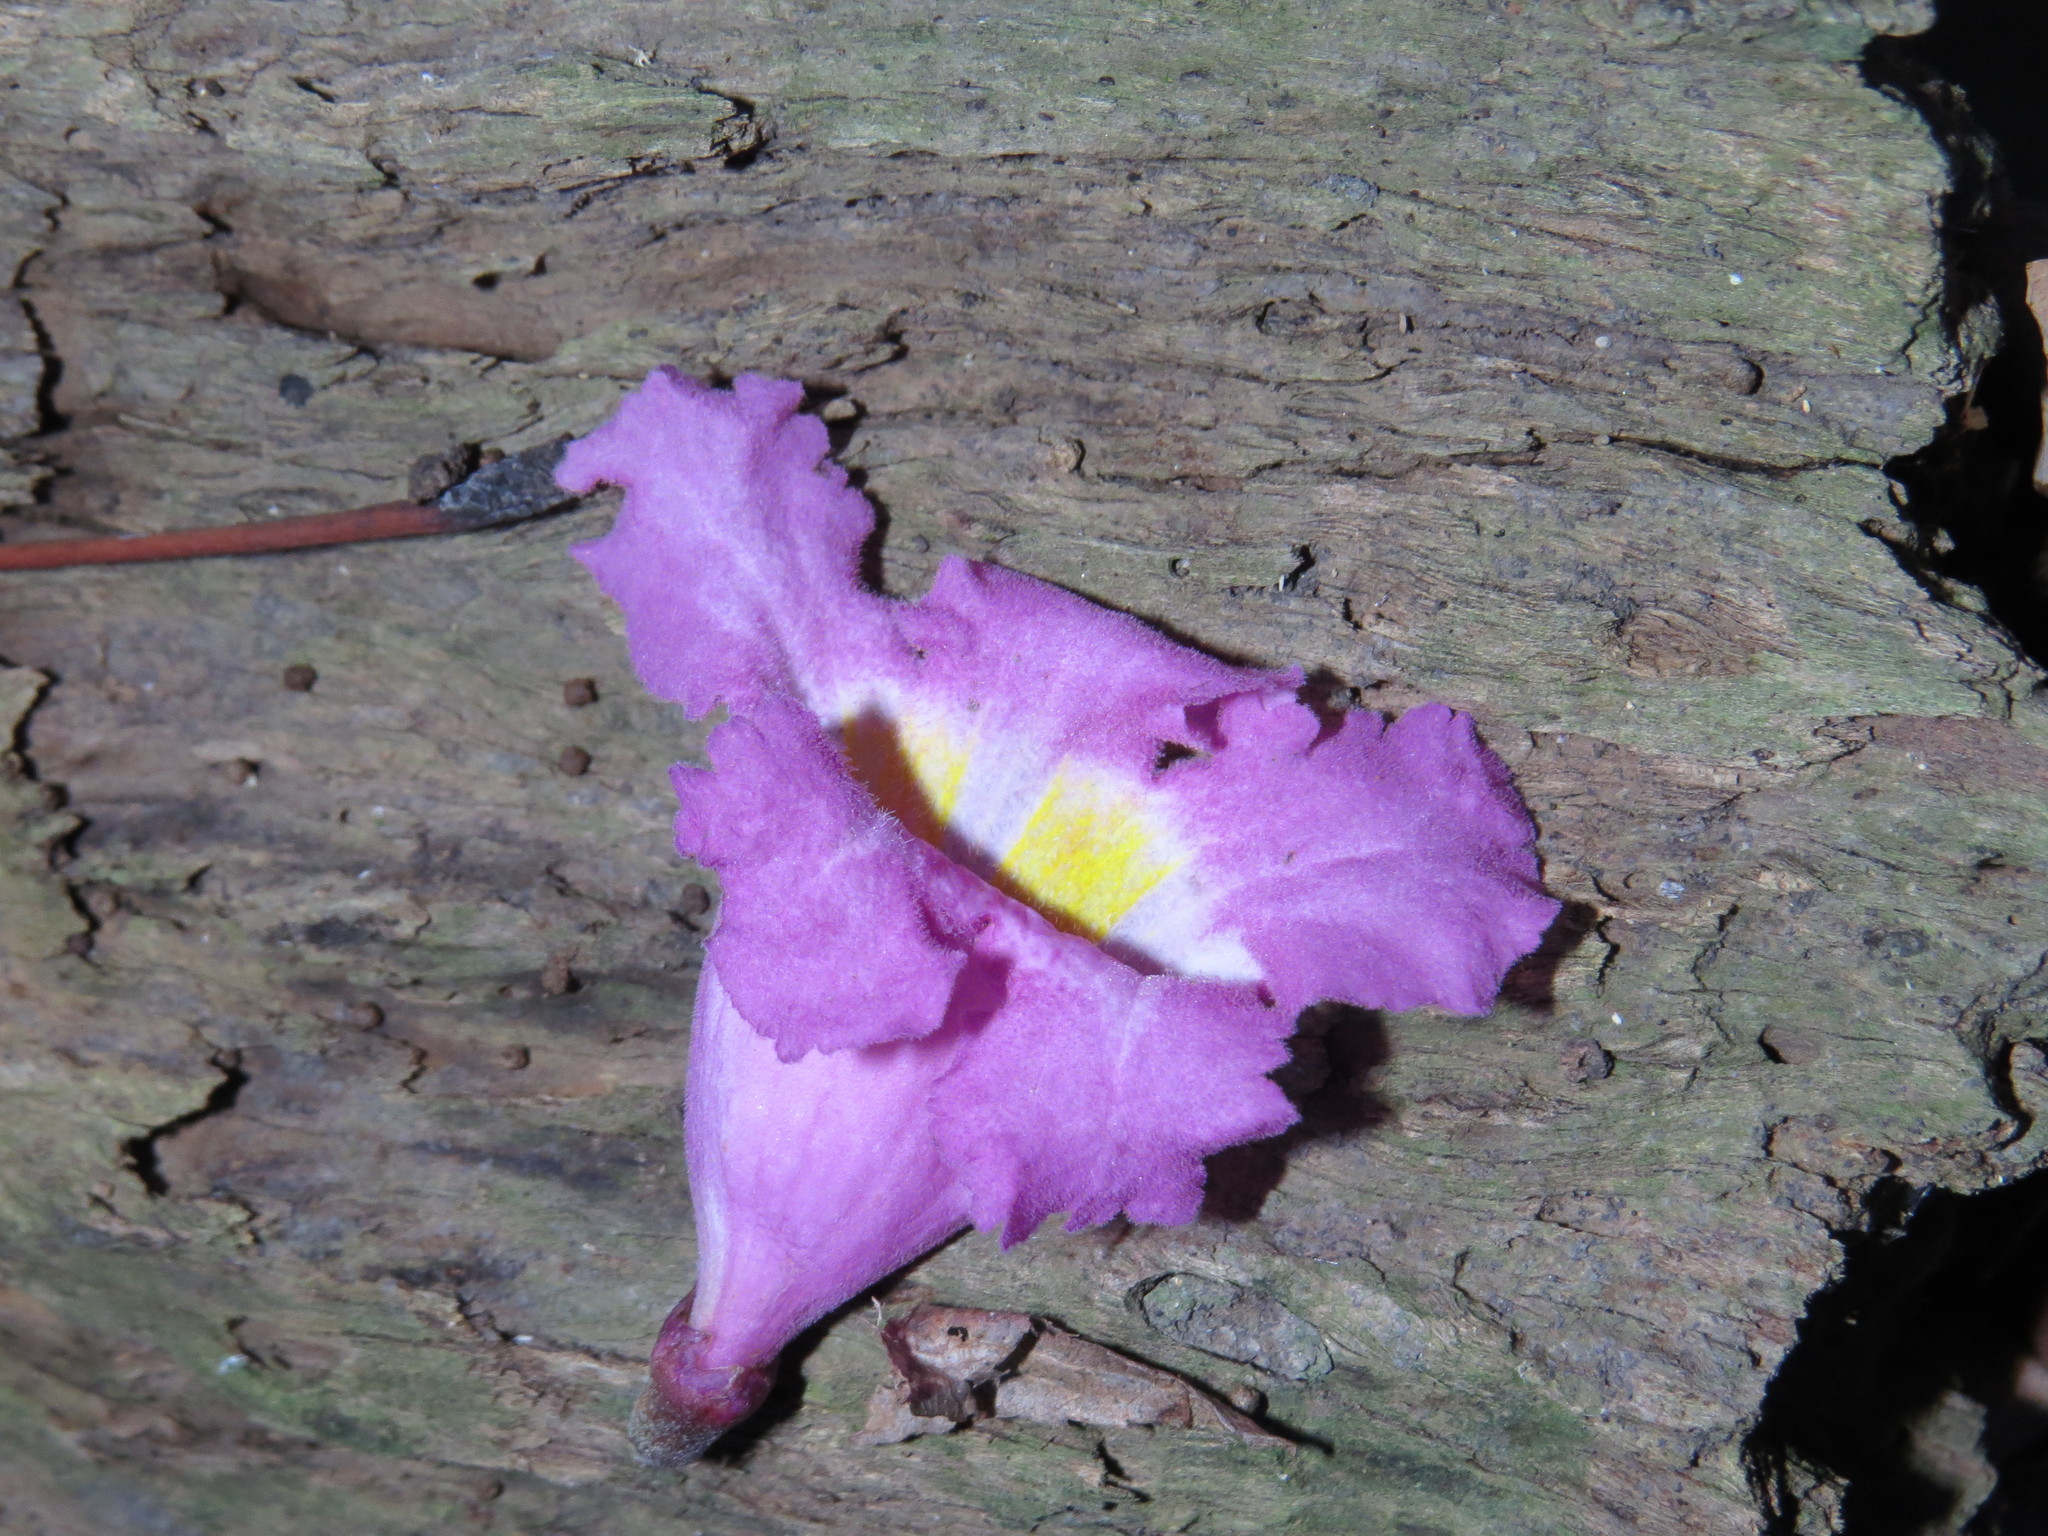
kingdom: Plantae
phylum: Tracheophyta
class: Magnoliopsida
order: Lamiales
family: Bignoniaceae
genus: Handroanthus
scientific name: Handroanthus heptaphyllus
